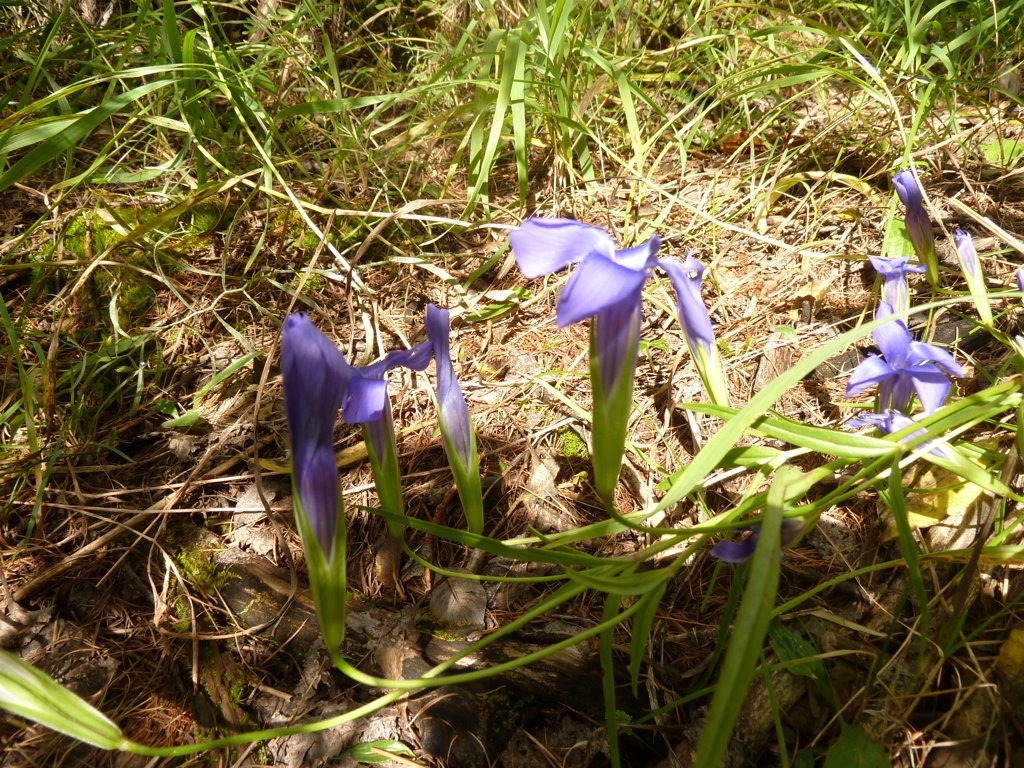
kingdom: Plantae
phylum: Tracheophyta
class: Magnoliopsida
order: Gentianales
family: Gentianaceae
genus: Gentianopsis
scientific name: Gentianopsis barbata
